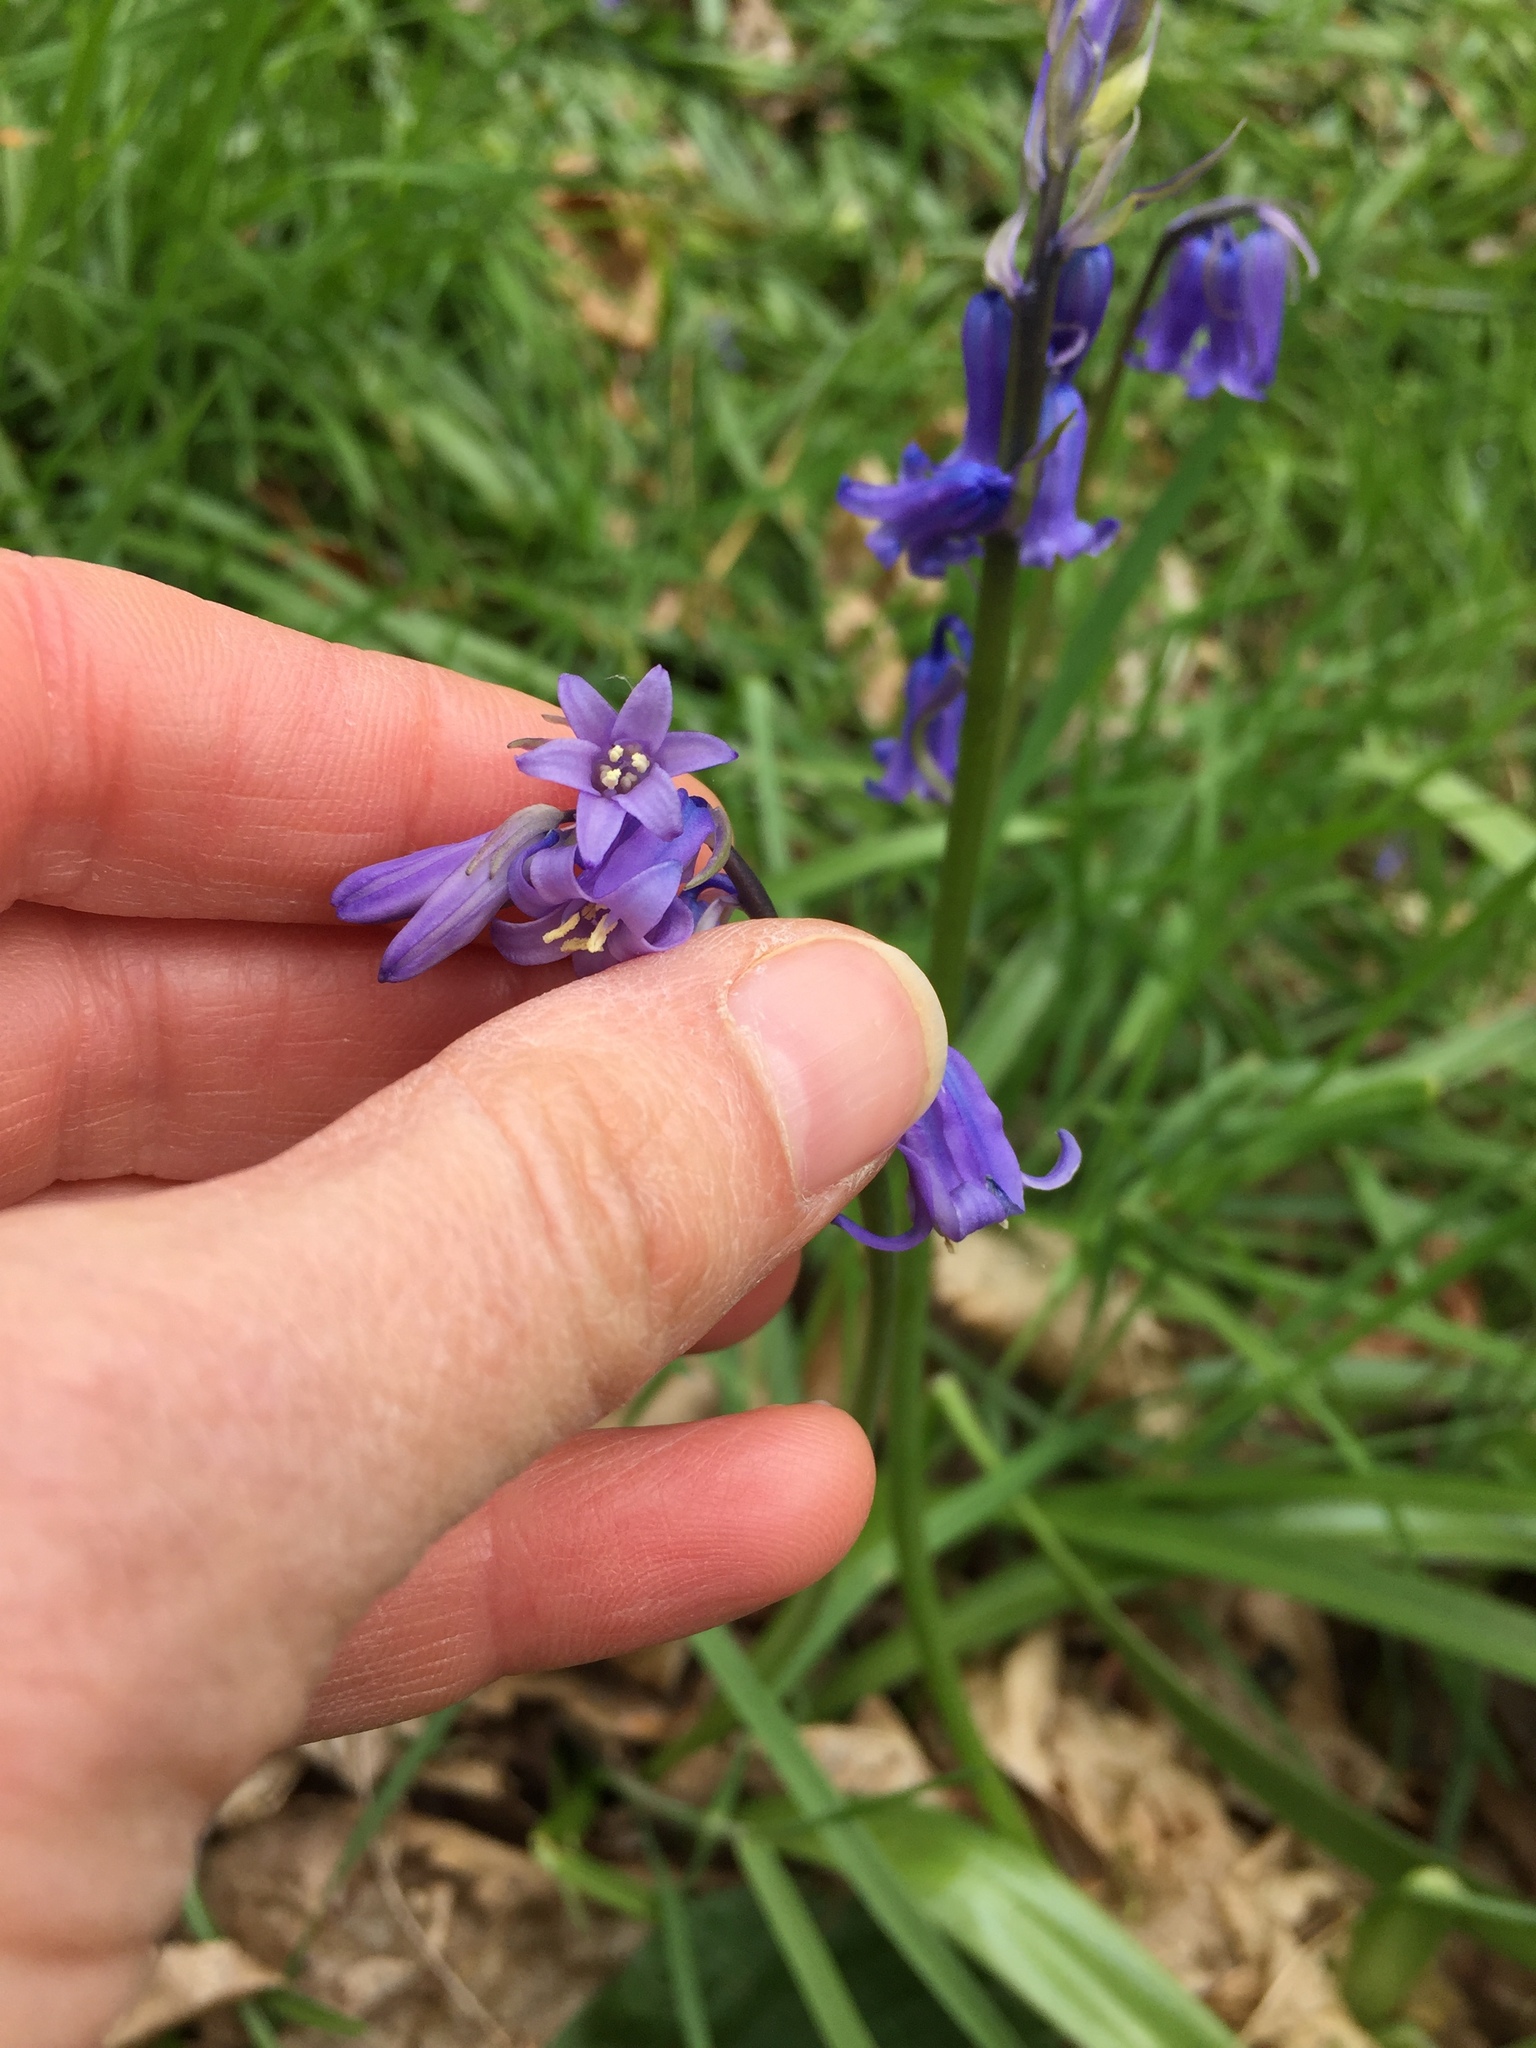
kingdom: Plantae
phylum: Tracheophyta
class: Liliopsida
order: Asparagales
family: Asparagaceae
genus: Hyacinthoides
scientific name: Hyacinthoides non-scripta
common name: Bluebell
